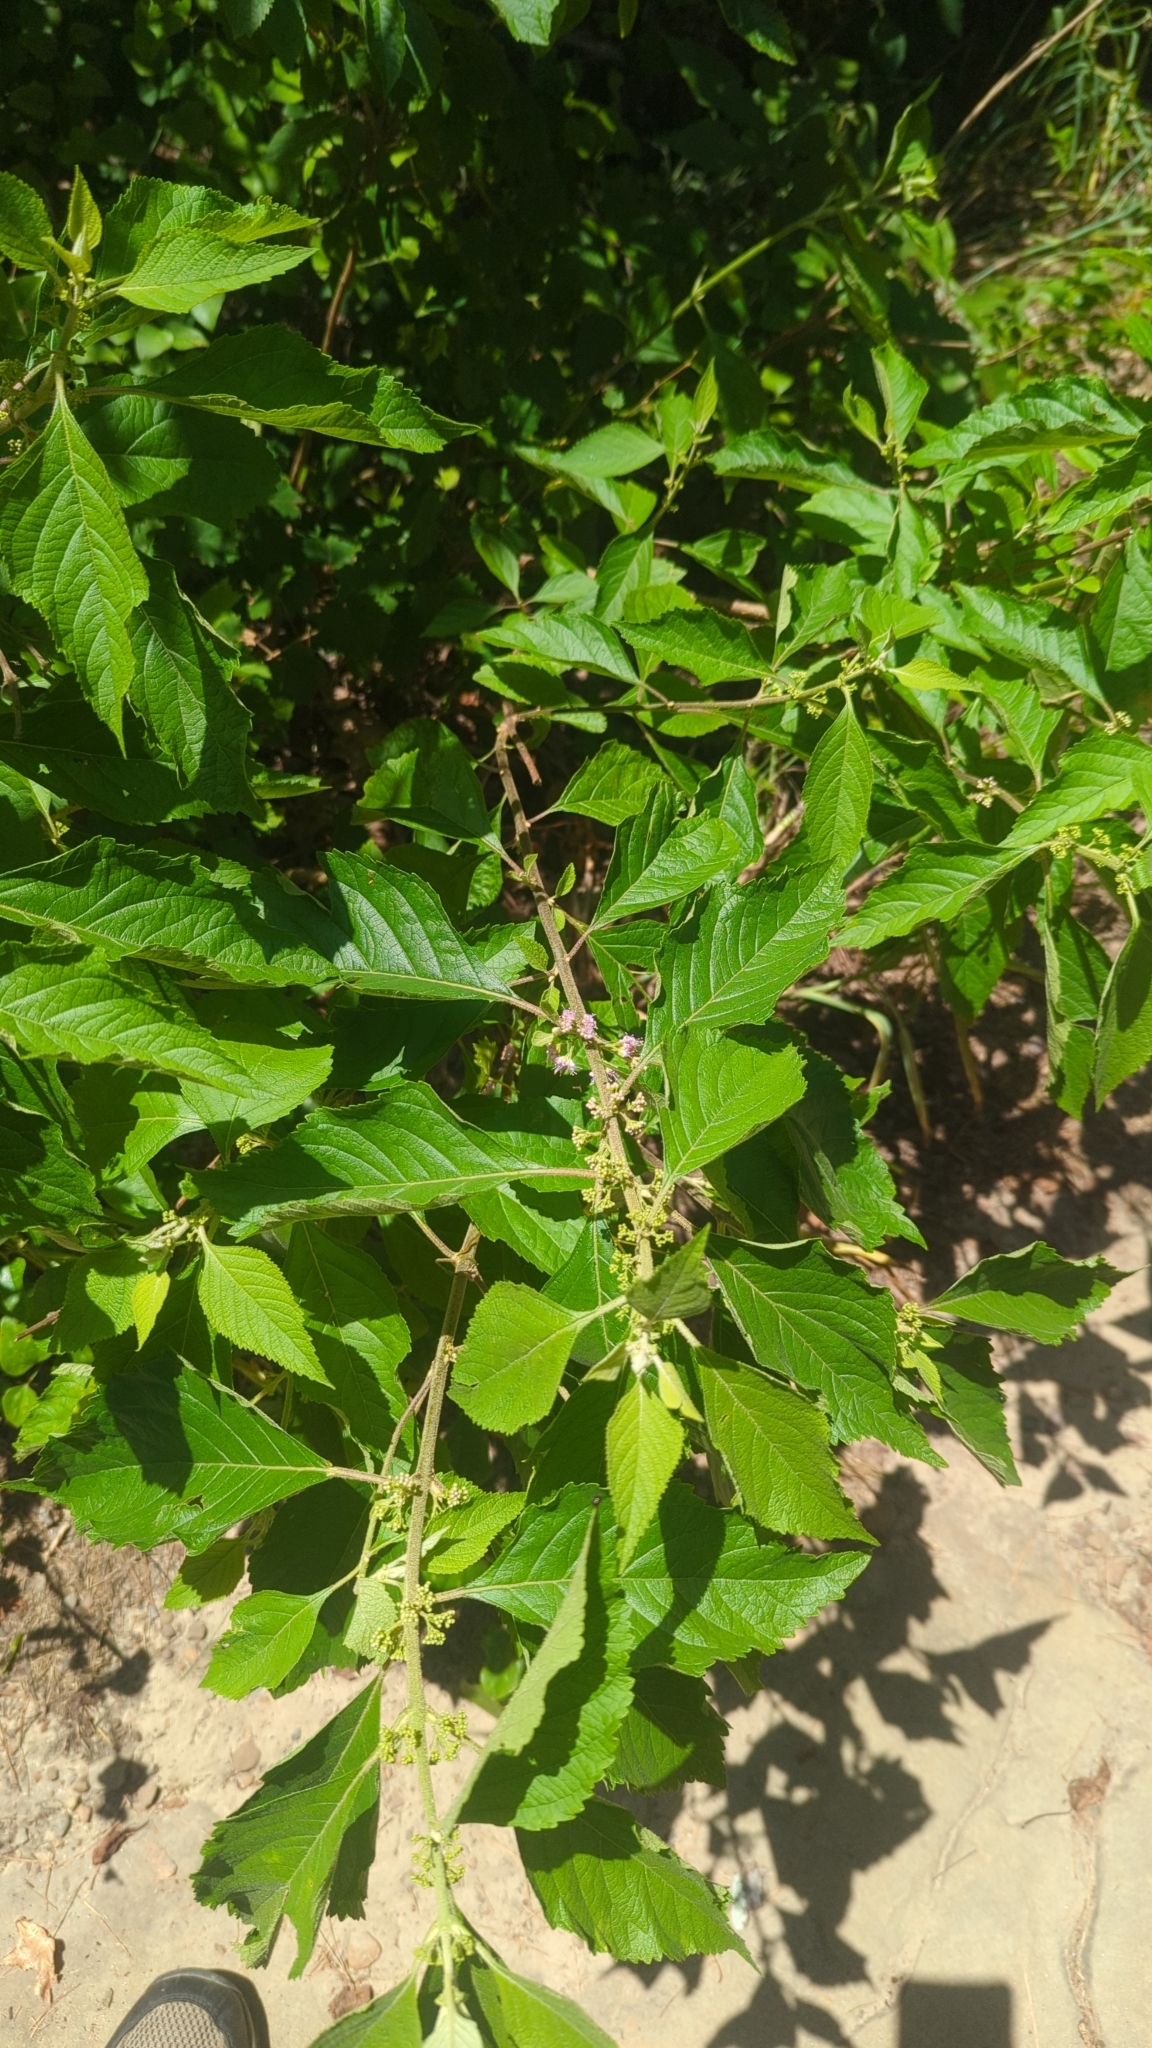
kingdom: Plantae
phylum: Tracheophyta
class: Magnoliopsida
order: Lamiales
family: Lamiaceae
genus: Callicarpa
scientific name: Callicarpa americana
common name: American beautyberry
